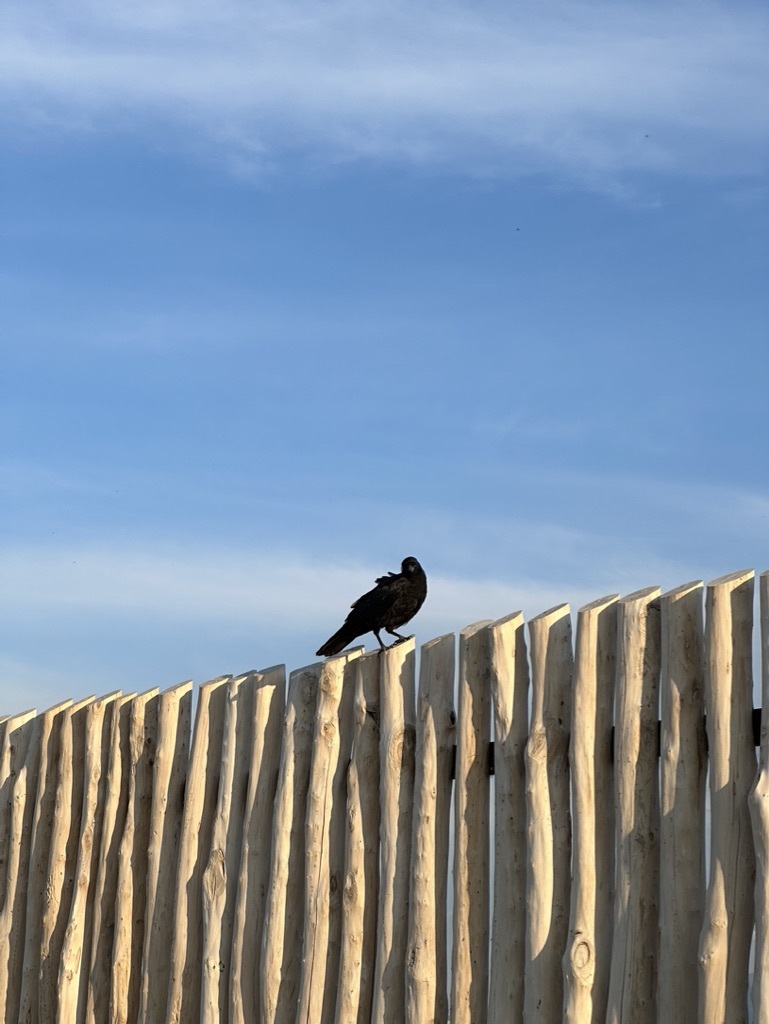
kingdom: Animalia
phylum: Chordata
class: Aves
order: Passeriformes
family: Corvidae
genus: Corvus
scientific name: Corvus corone
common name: Carrion crow
